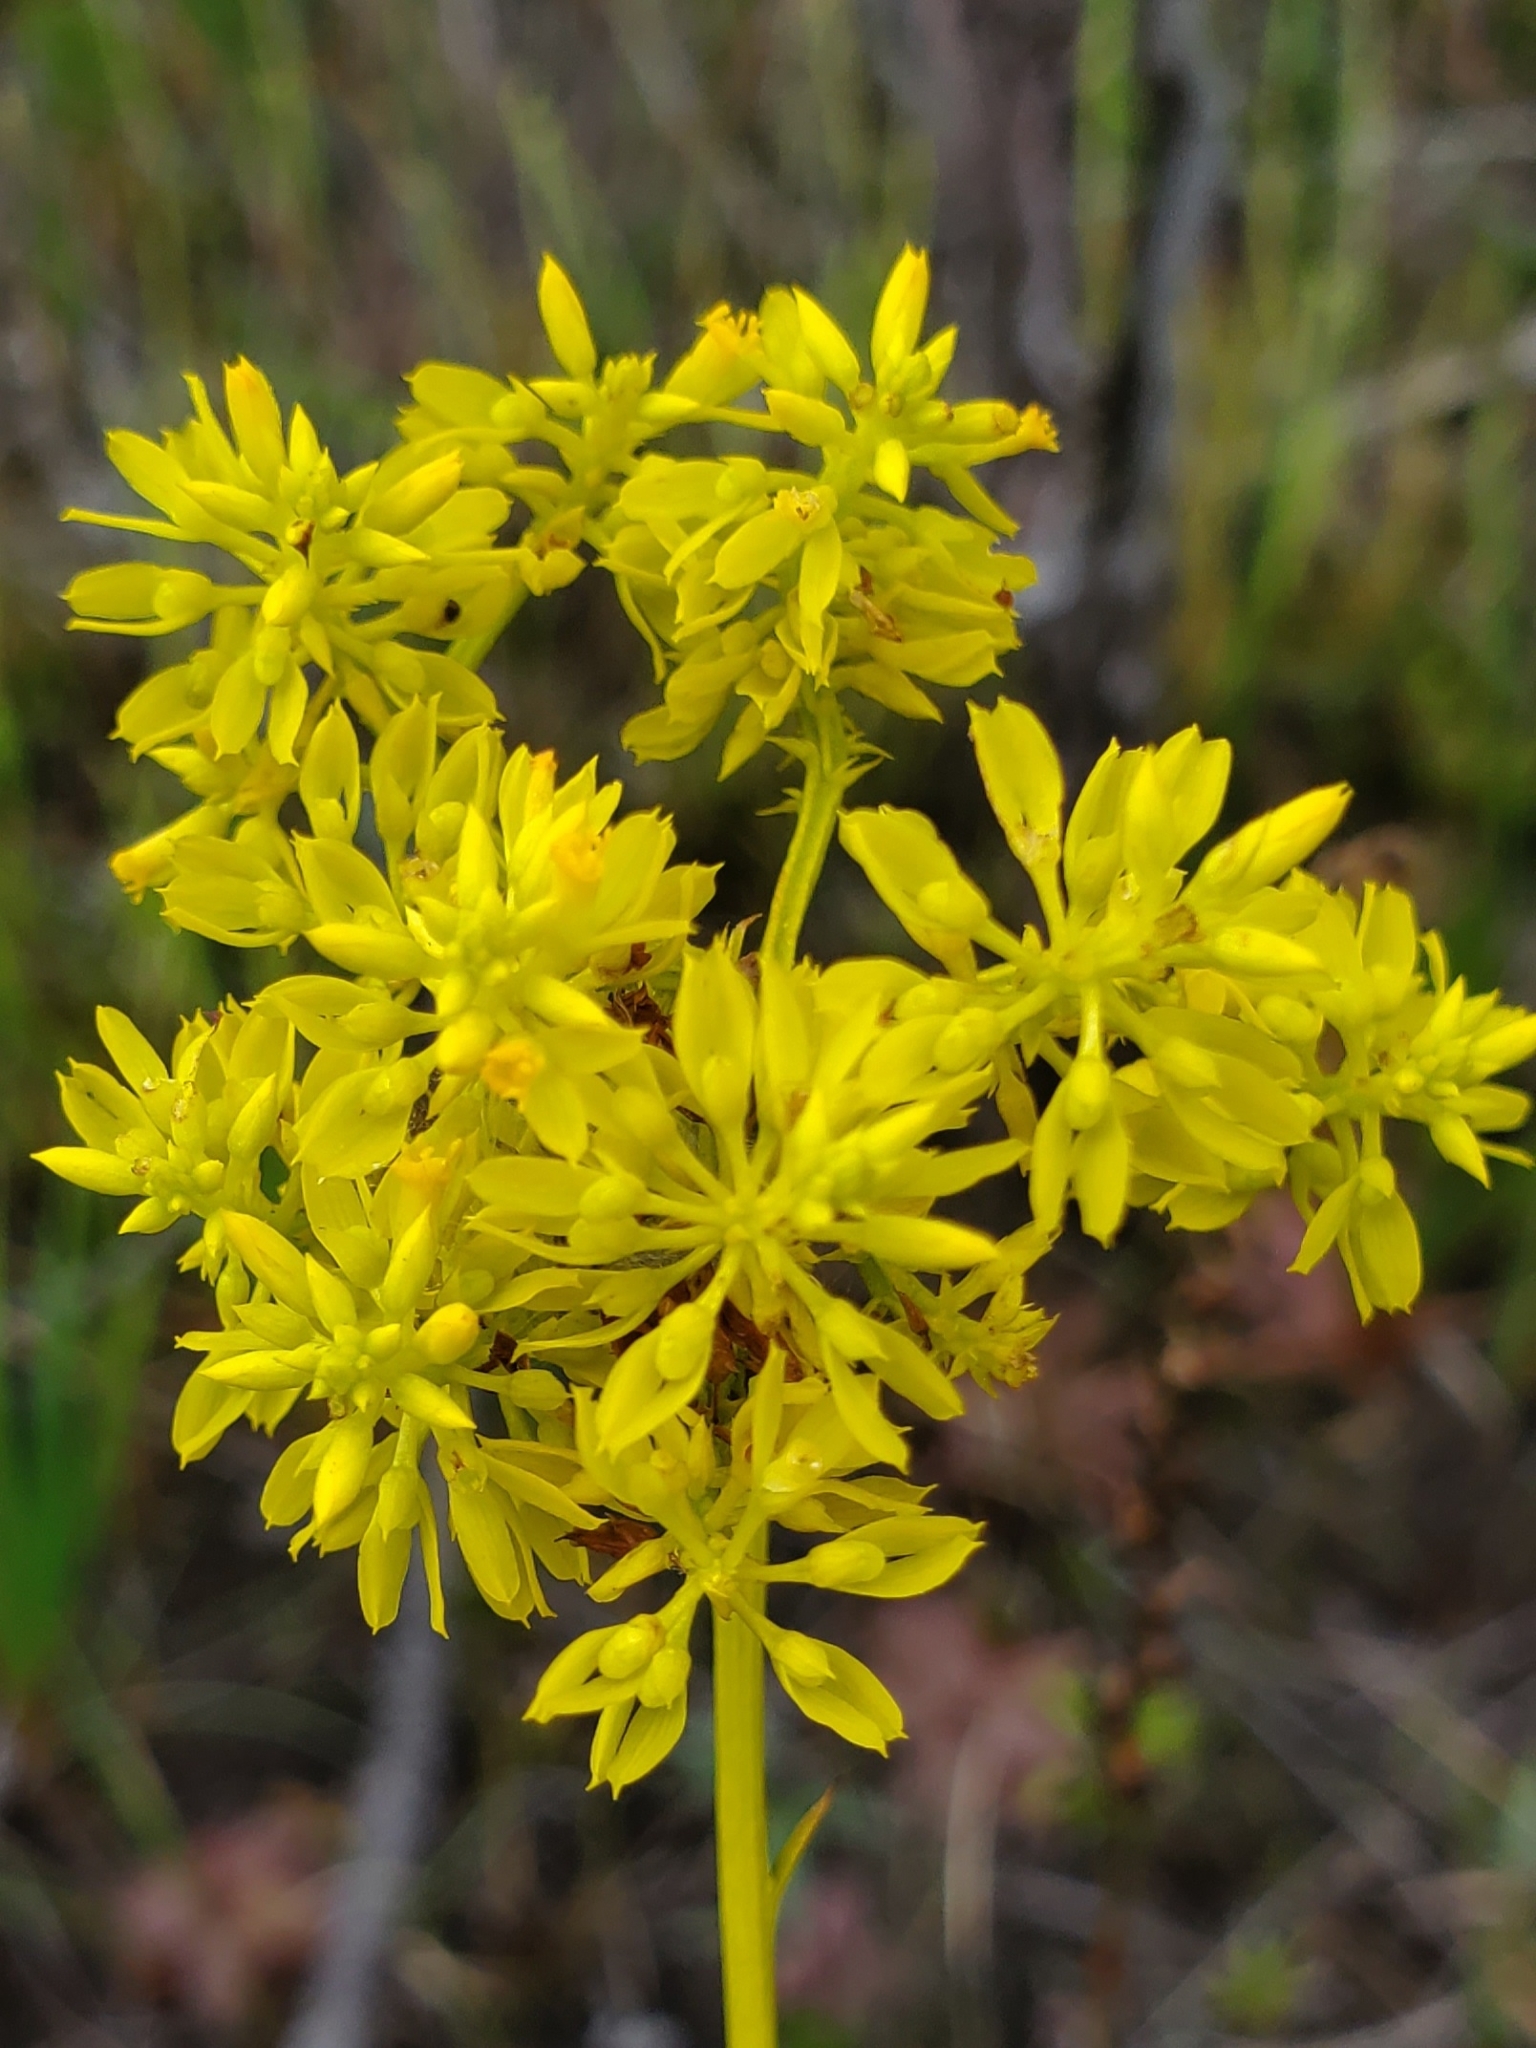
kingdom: Plantae
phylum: Tracheophyta
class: Magnoliopsida
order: Fabales
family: Polygalaceae
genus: Polygala
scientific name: Polygala cymosa
